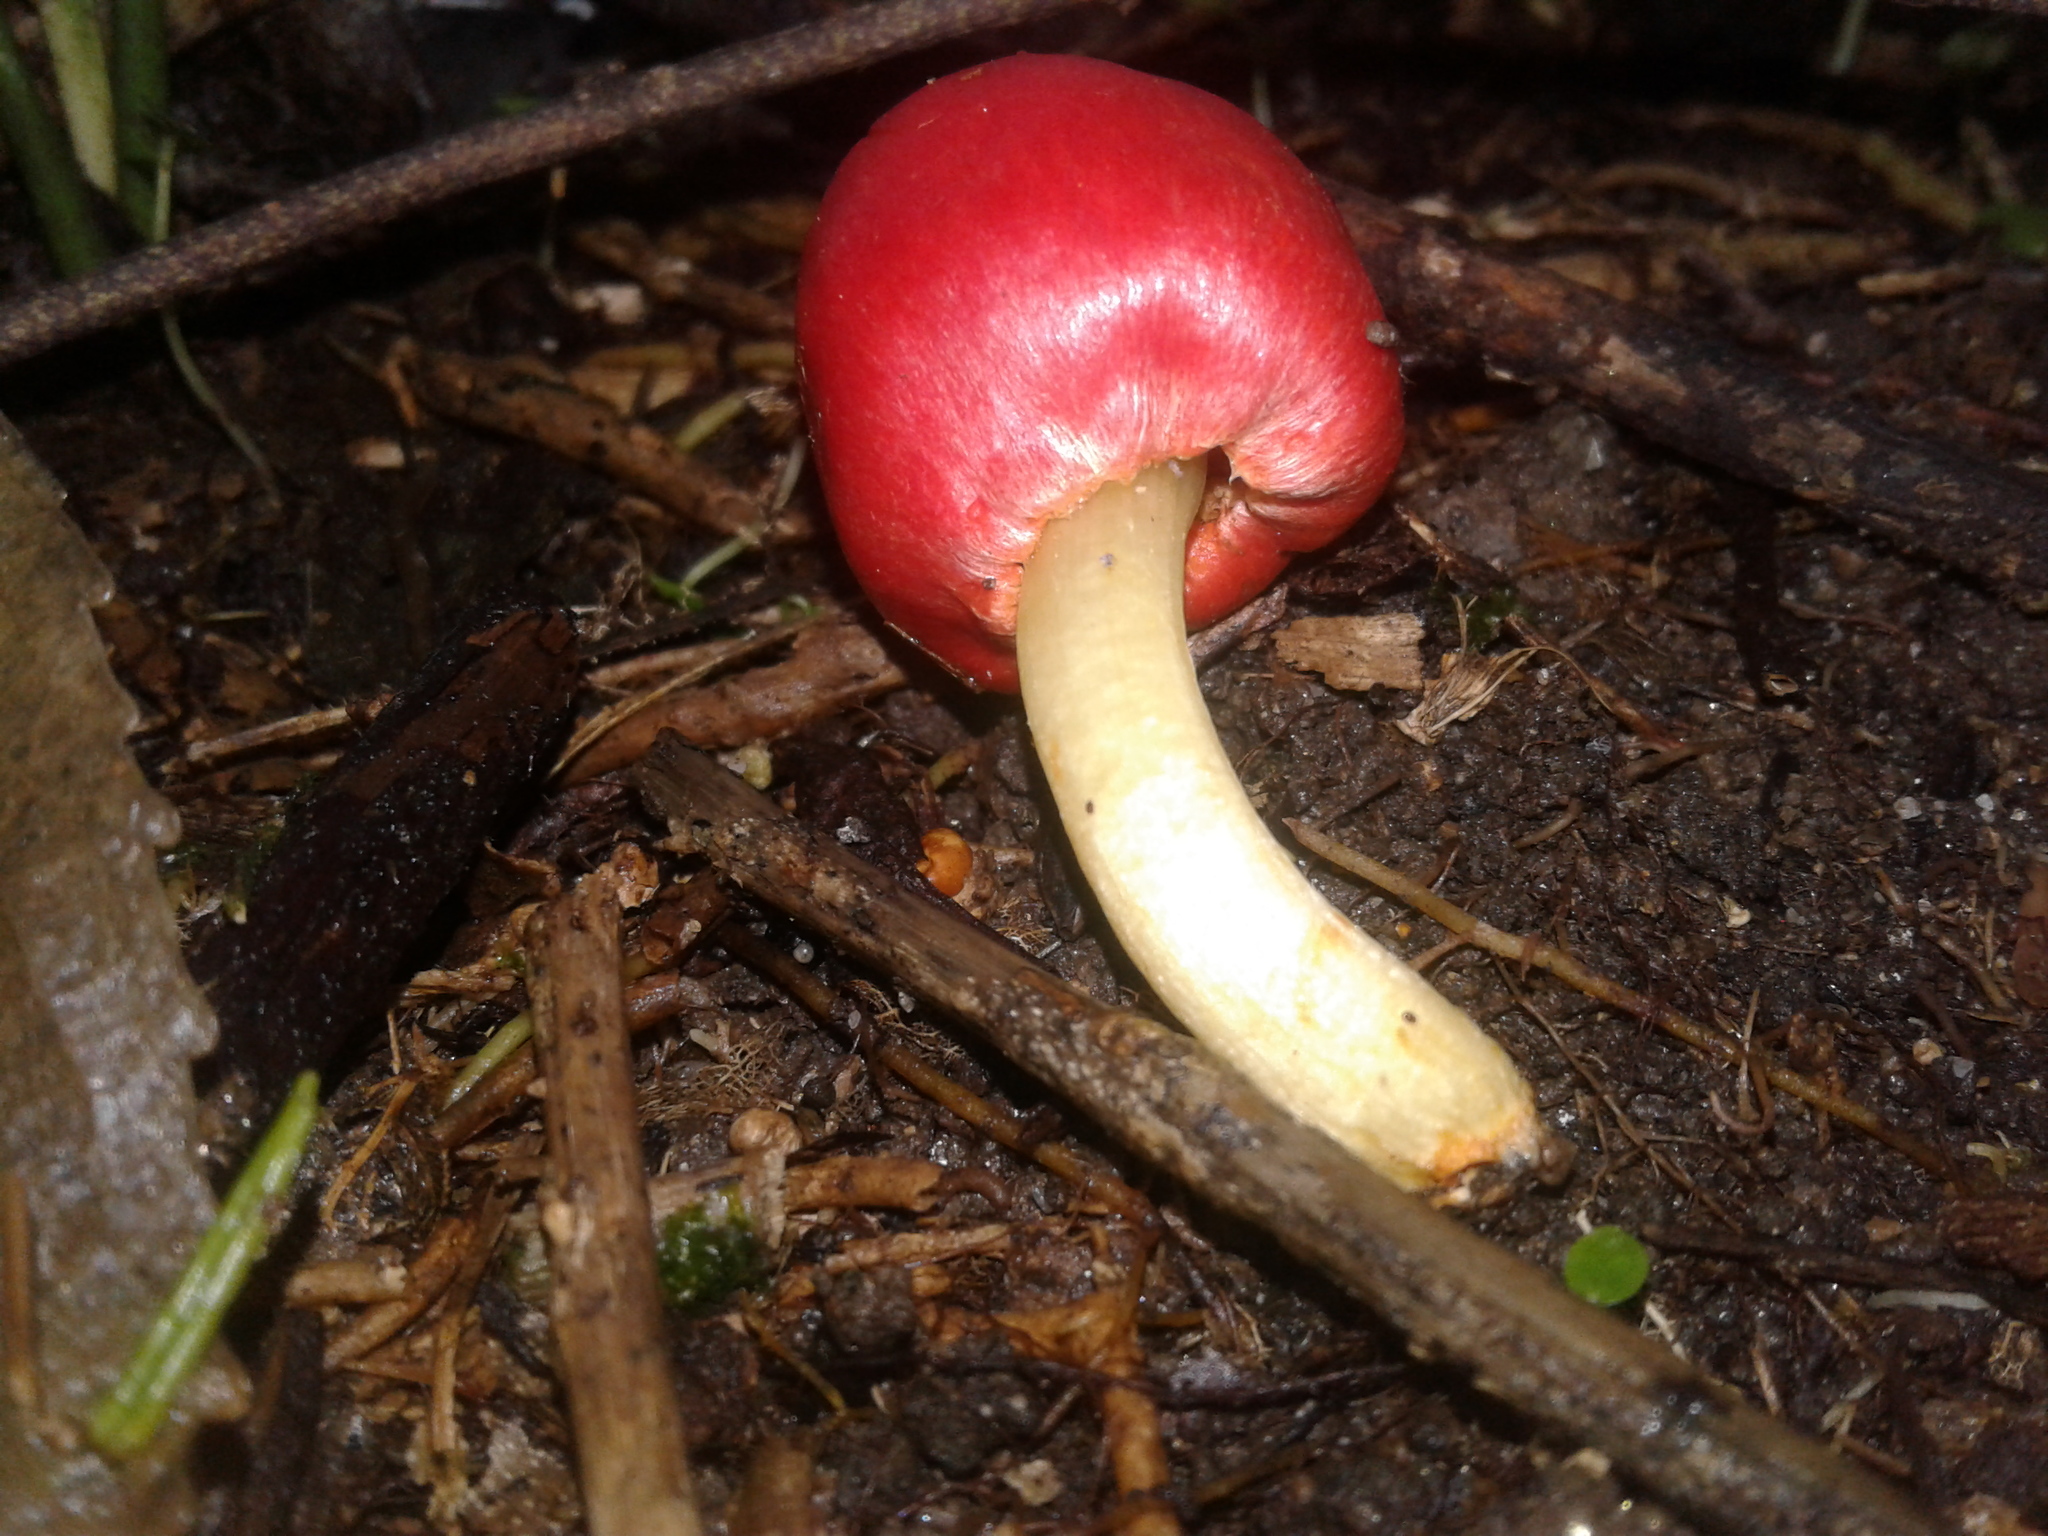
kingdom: Fungi
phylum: Basidiomycota
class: Agaricomycetes
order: Agaricales
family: Strophariaceae
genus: Leratiomyces
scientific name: Leratiomyces erythrocephalus
